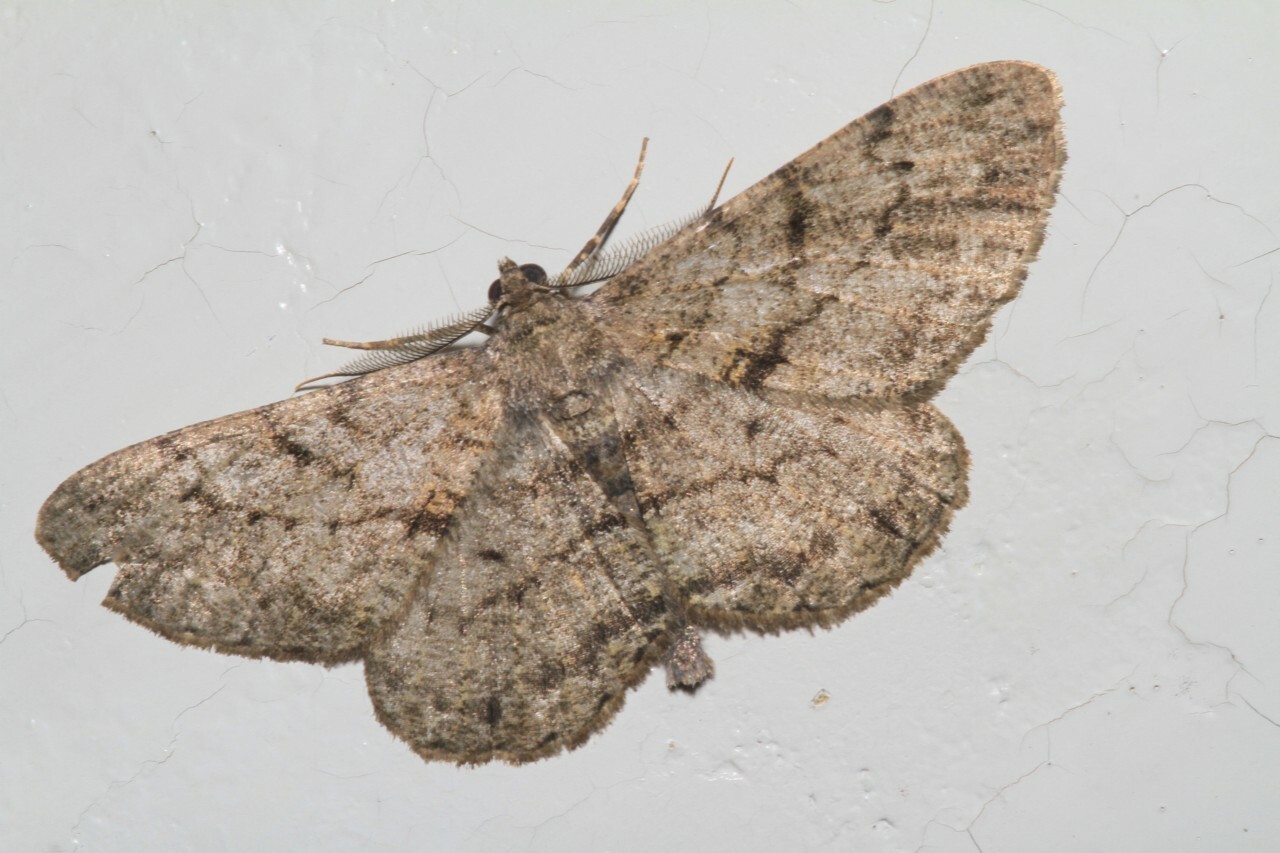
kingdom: Animalia
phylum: Arthropoda
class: Insecta
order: Lepidoptera
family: Geometridae
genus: Peribatodes
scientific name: Peribatodes rhomboidaria
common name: Willow beauty
